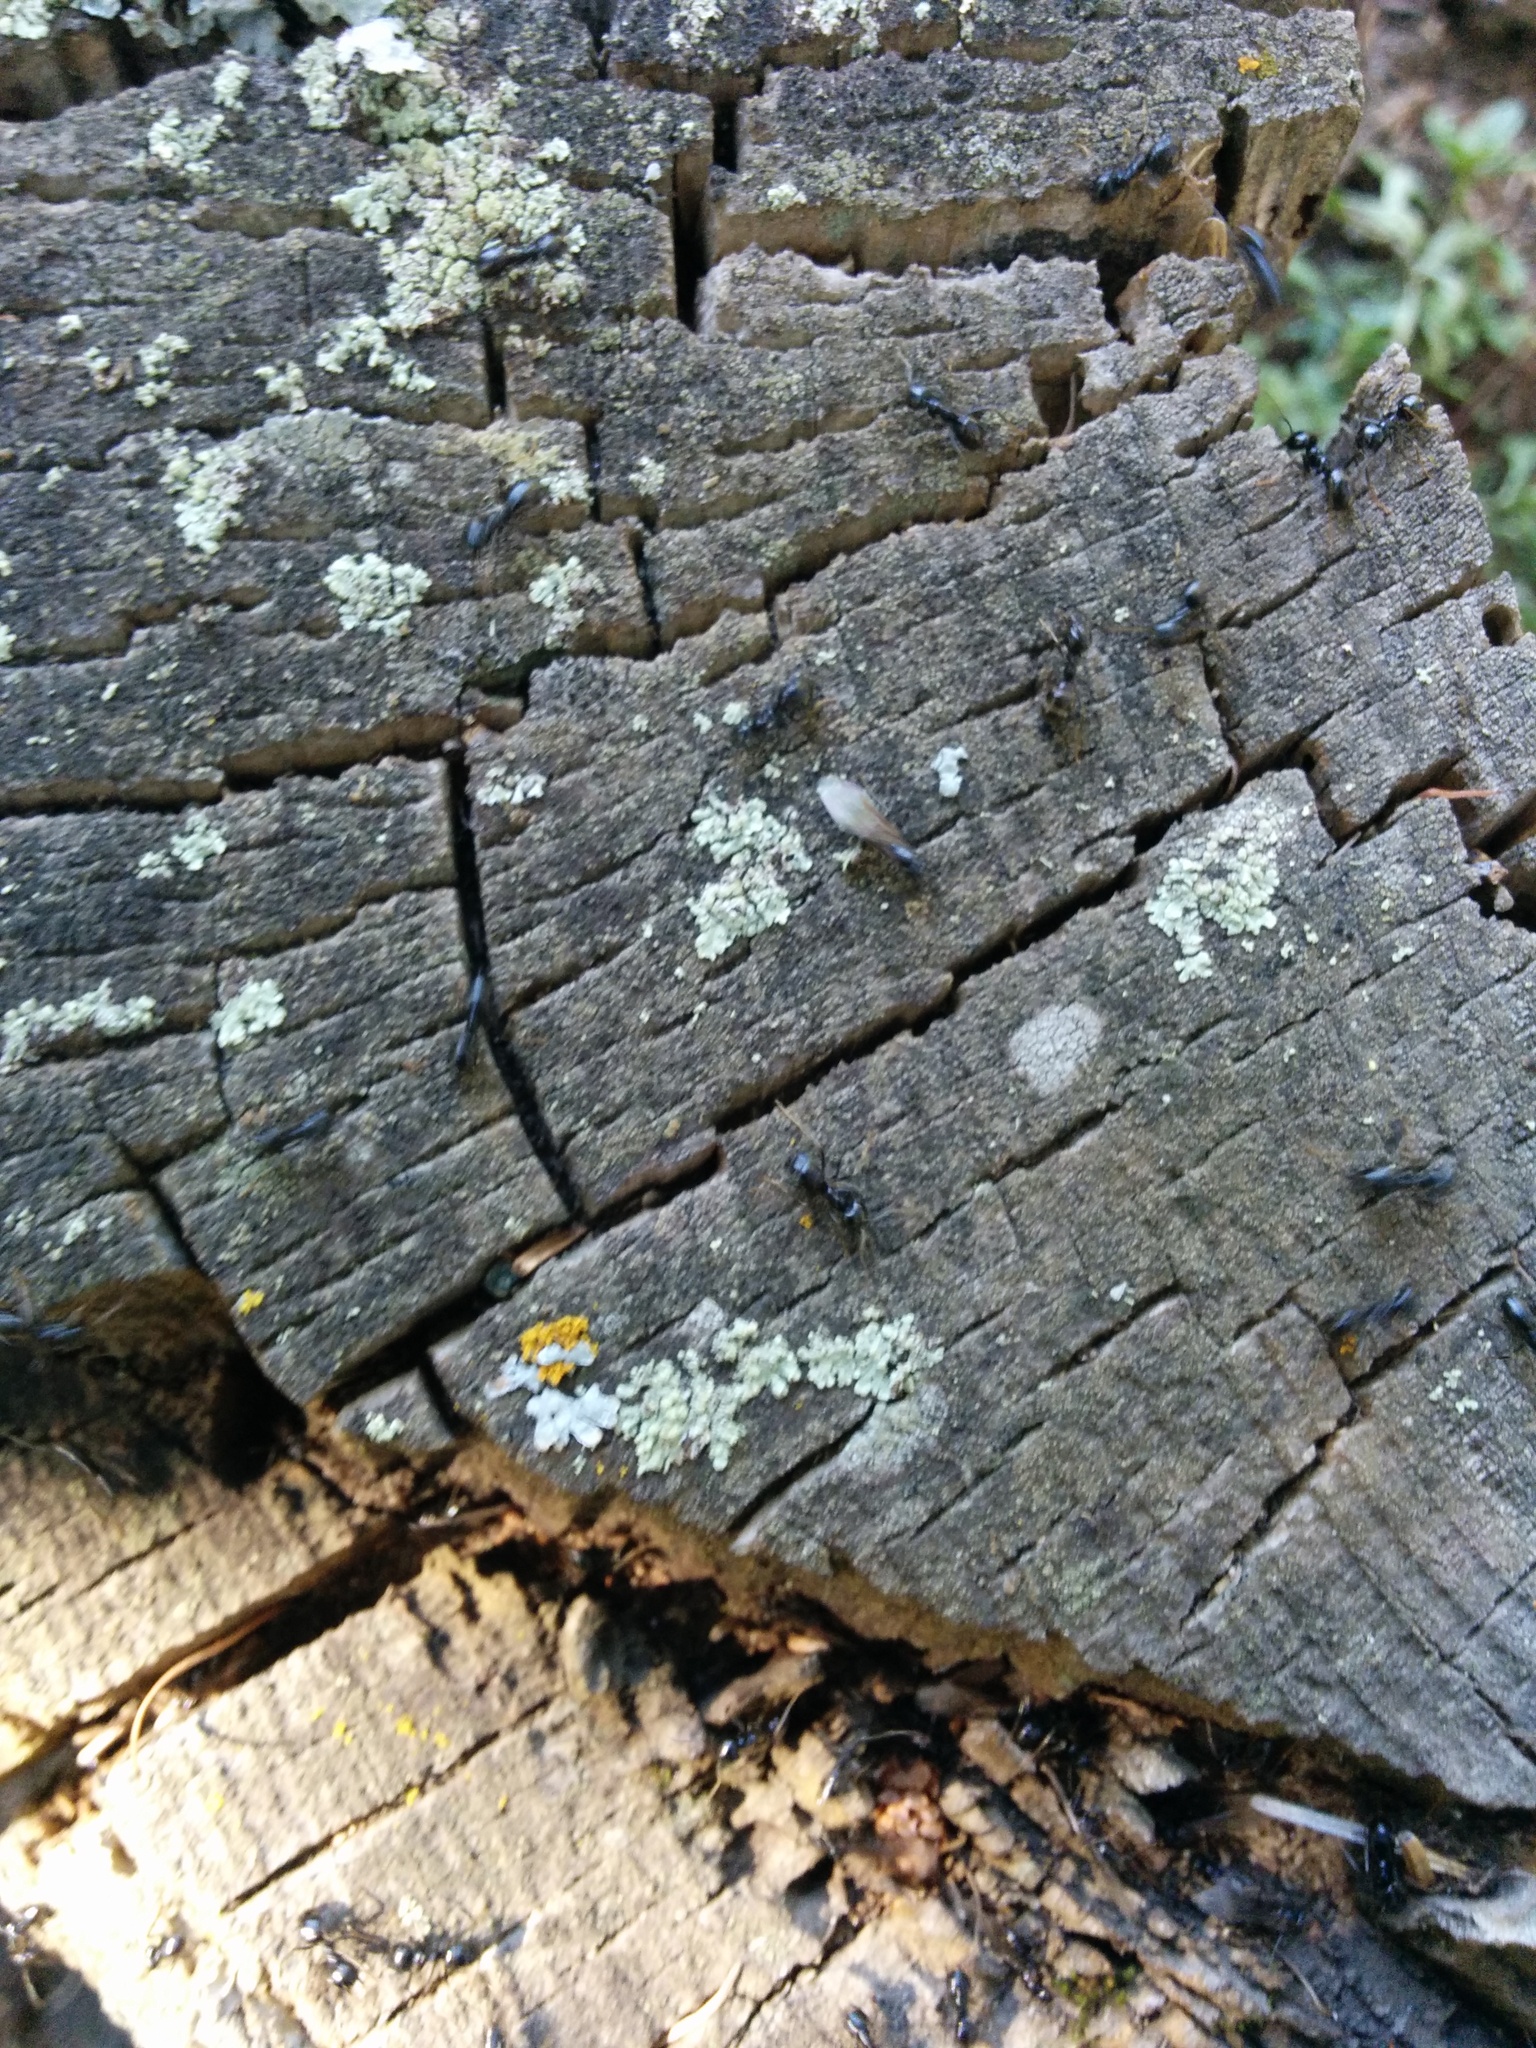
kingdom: Animalia
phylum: Arthropoda
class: Insecta
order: Hymenoptera
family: Formicidae
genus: Lasius
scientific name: Lasius fuliginosus
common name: Jet ant
